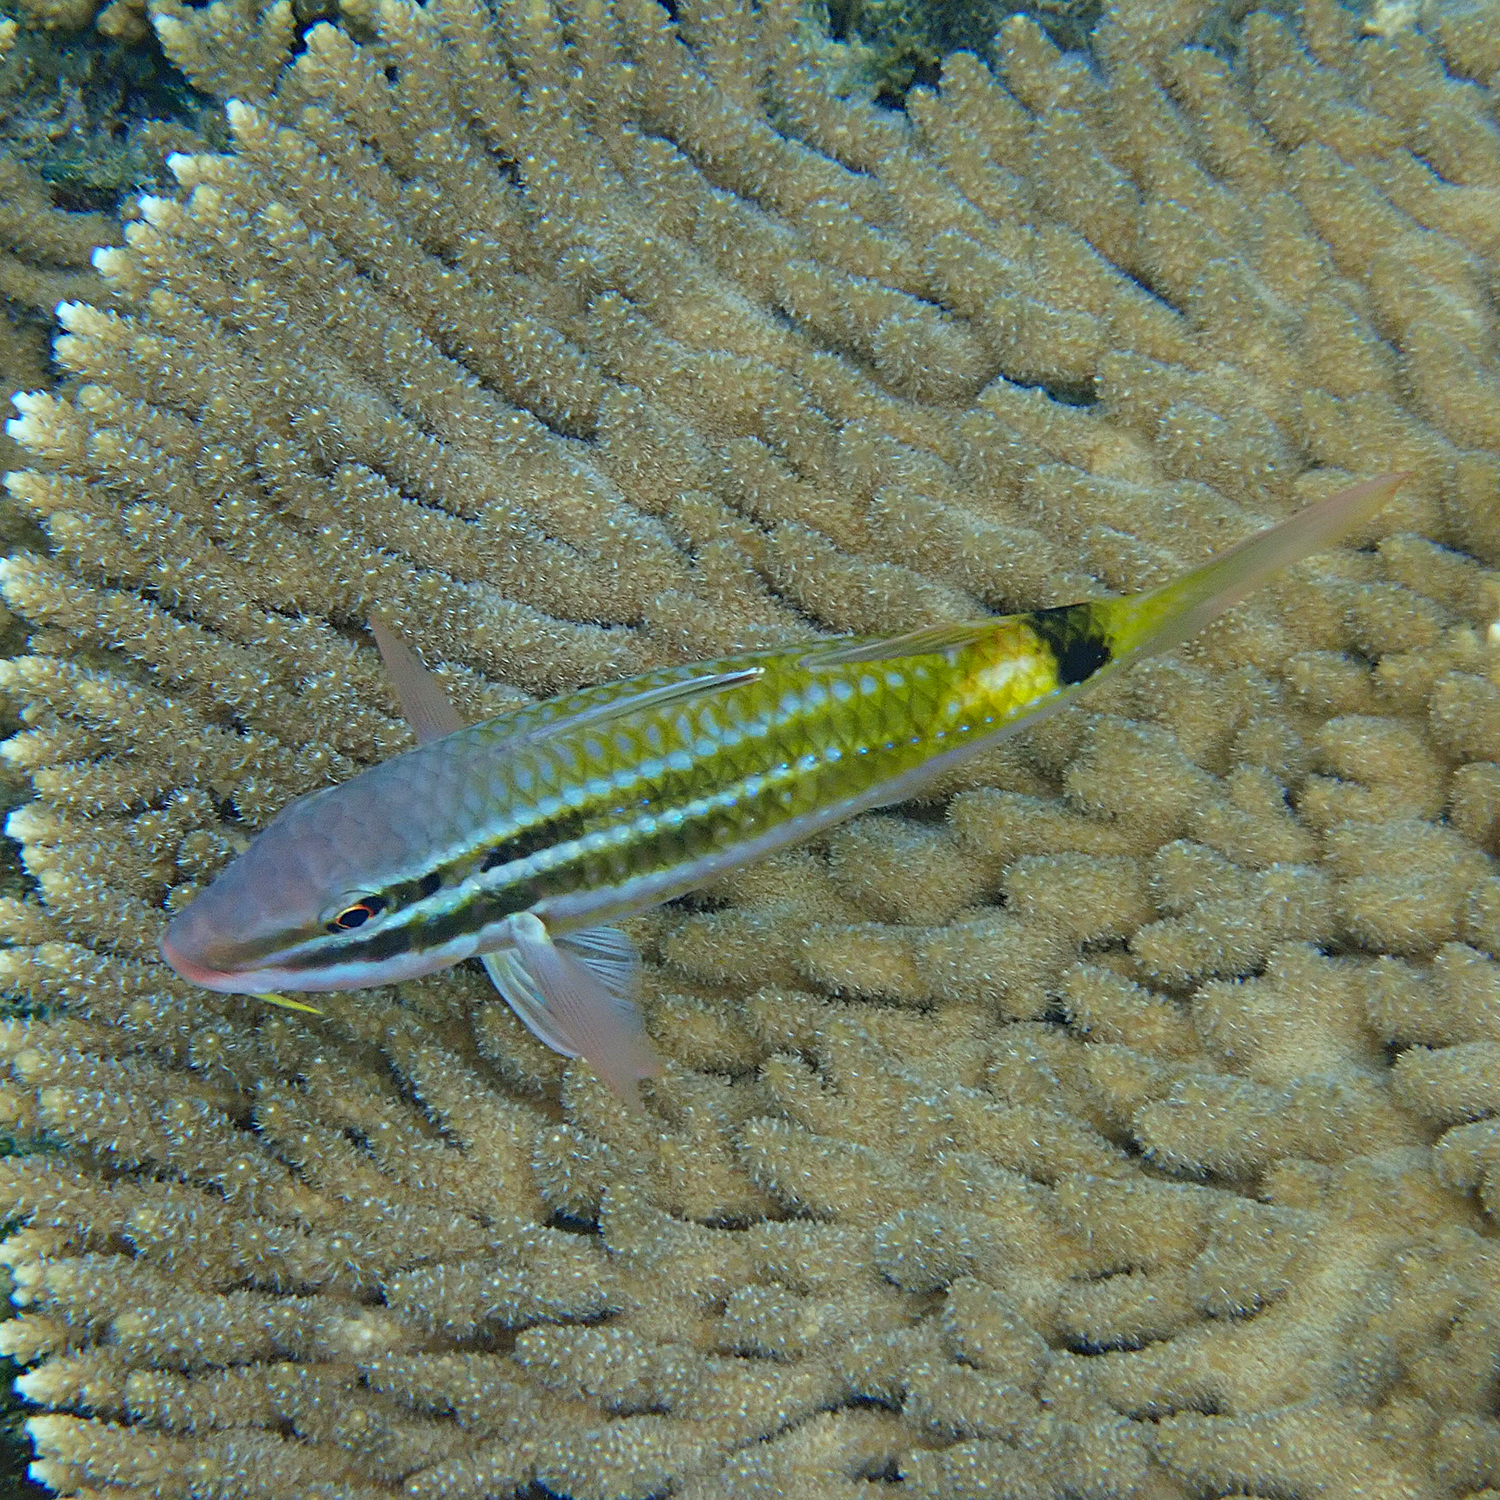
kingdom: Animalia
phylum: Chordata
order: Perciformes
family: Mullidae
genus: Parupeneus
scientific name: Parupeneus spilurus
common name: Blackspot goatfish
